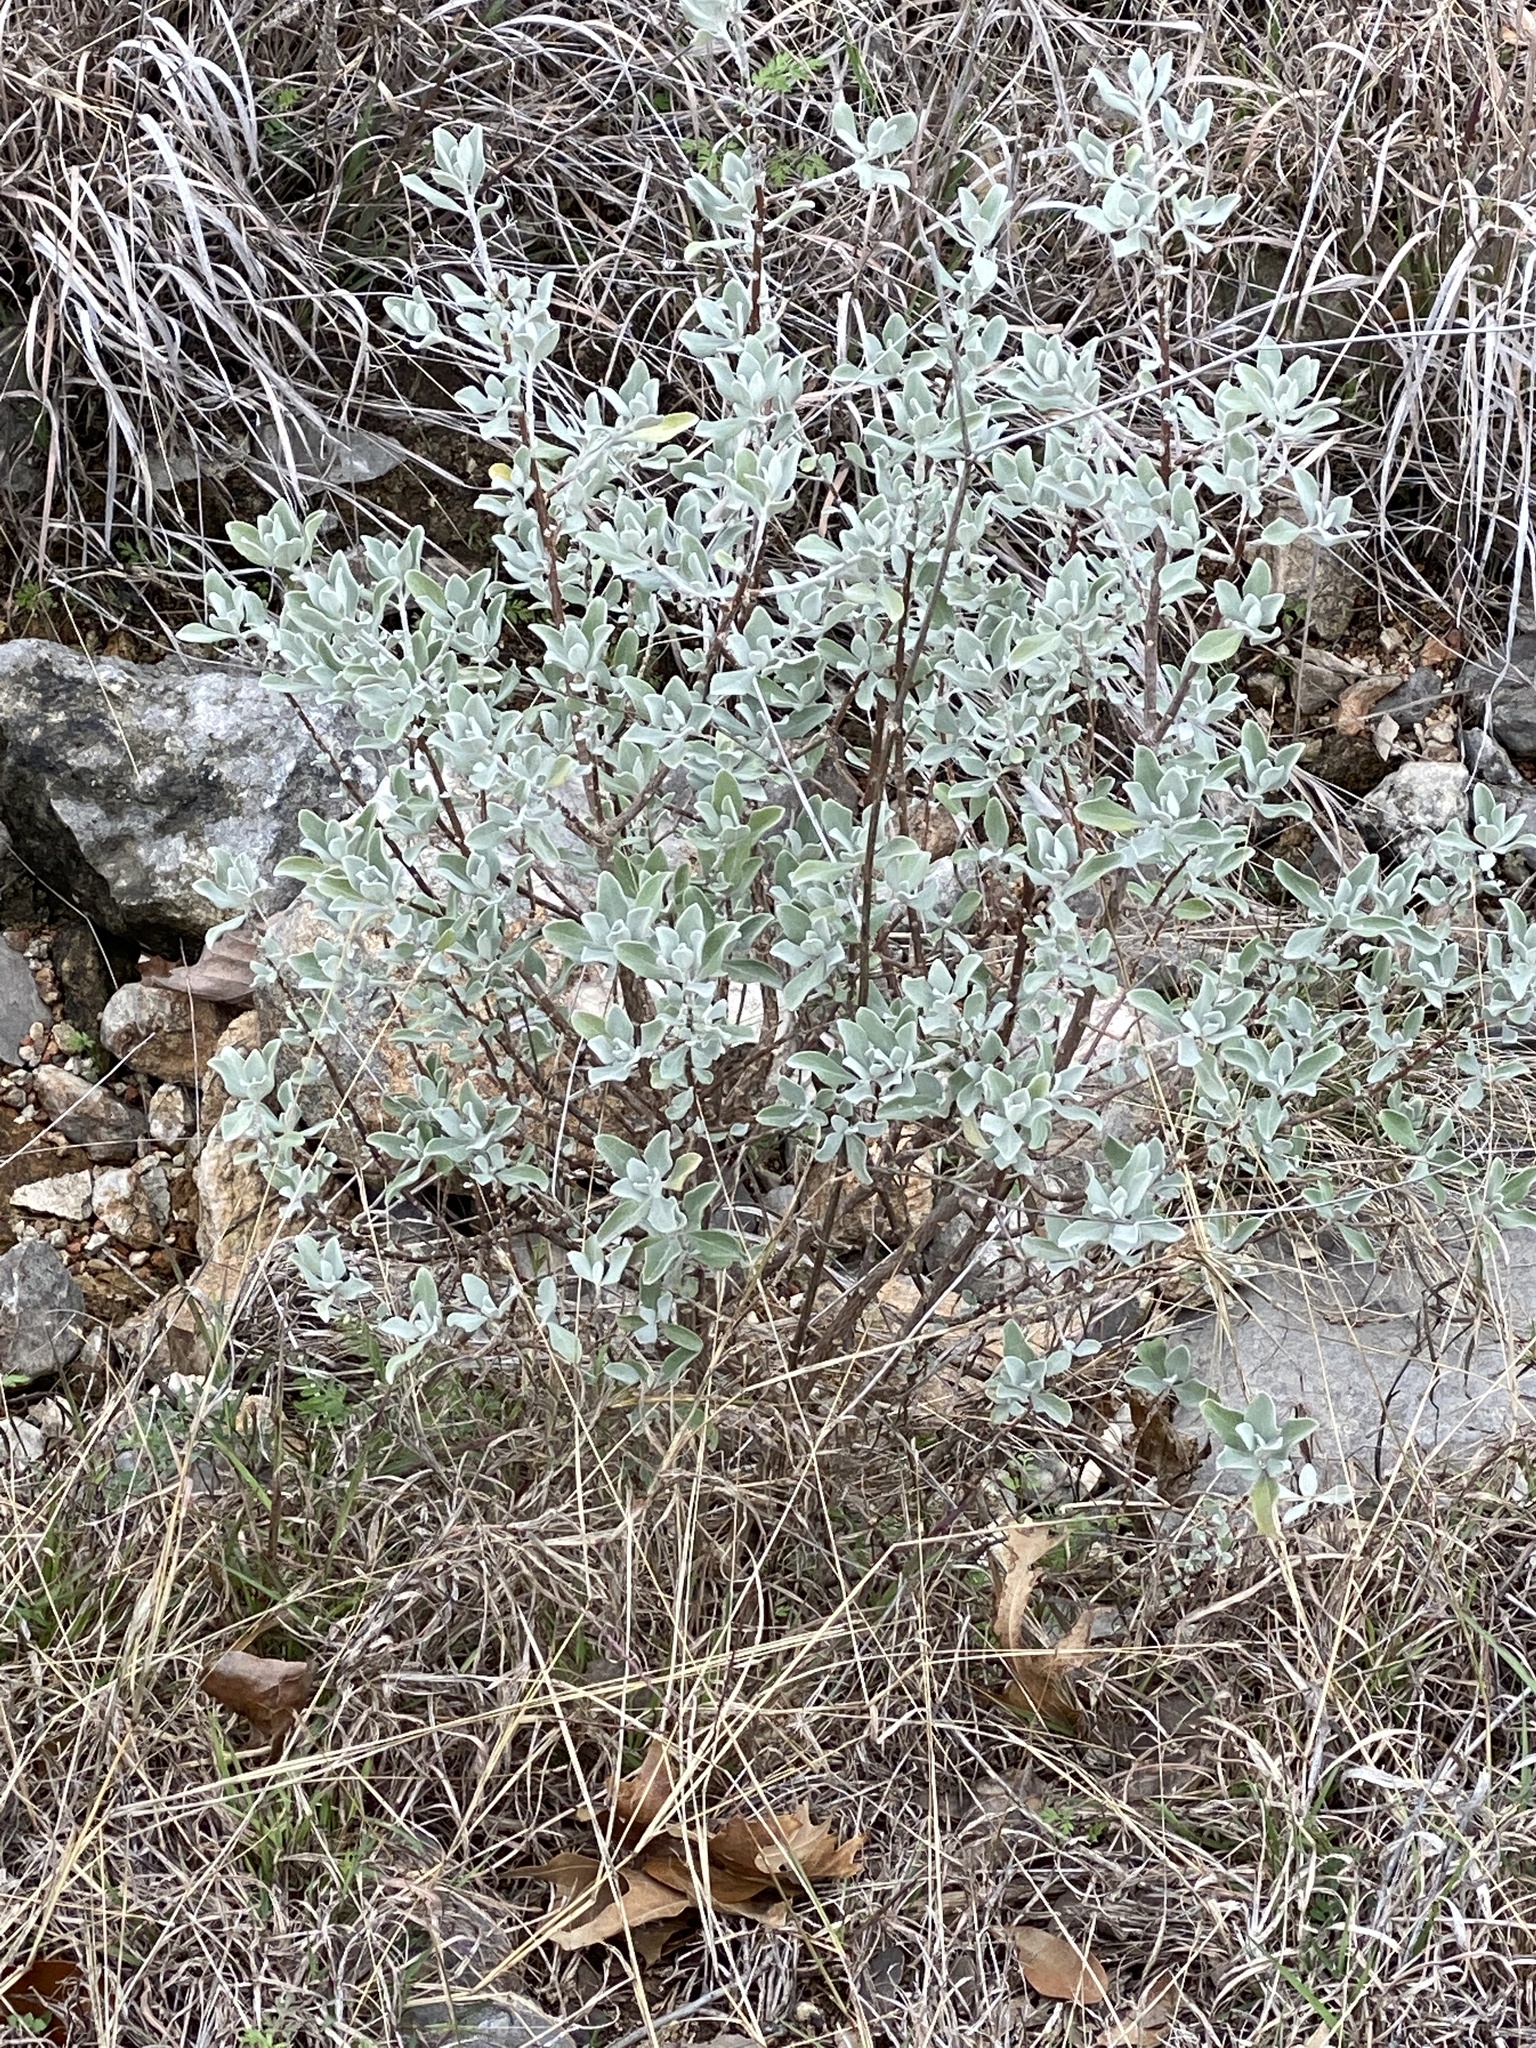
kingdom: Plantae
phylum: Tracheophyta
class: Magnoliopsida
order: Lamiales
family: Scrophulariaceae
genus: Leucophyllum
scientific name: Leucophyllum frutescens
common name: Texas silverleaf
